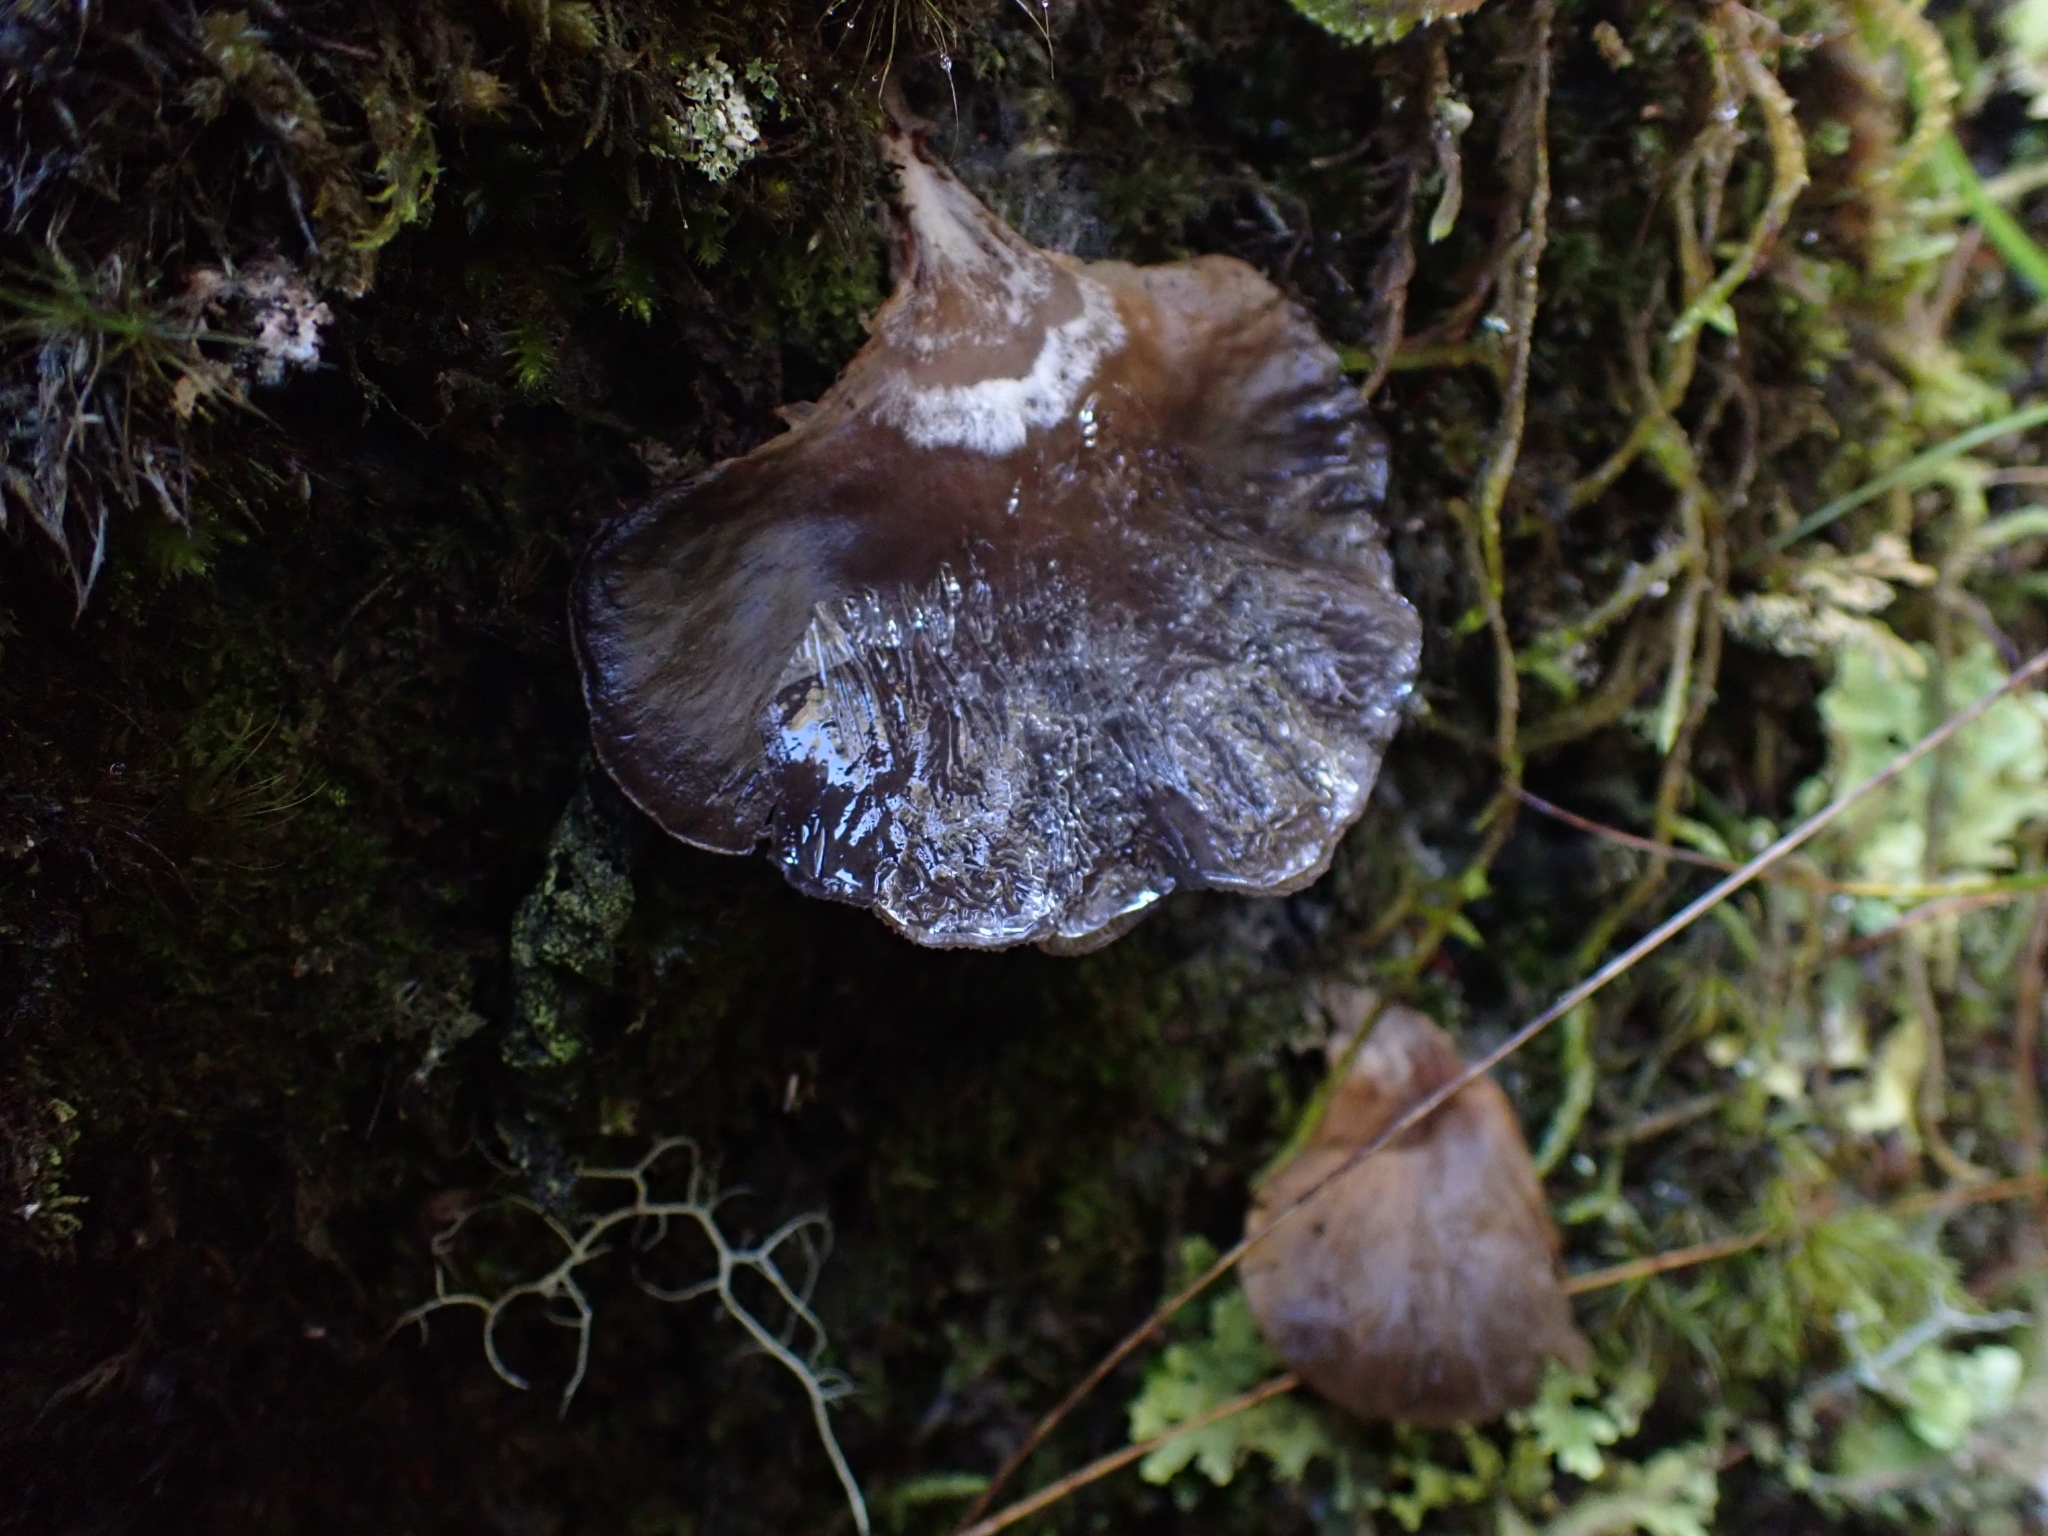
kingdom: Fungi
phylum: Basidiomycota
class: Agaricomycetes
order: Agaricales
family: Pleurotaceae
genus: Pleurotus
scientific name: Pleurotus purpureo-olivaceus
